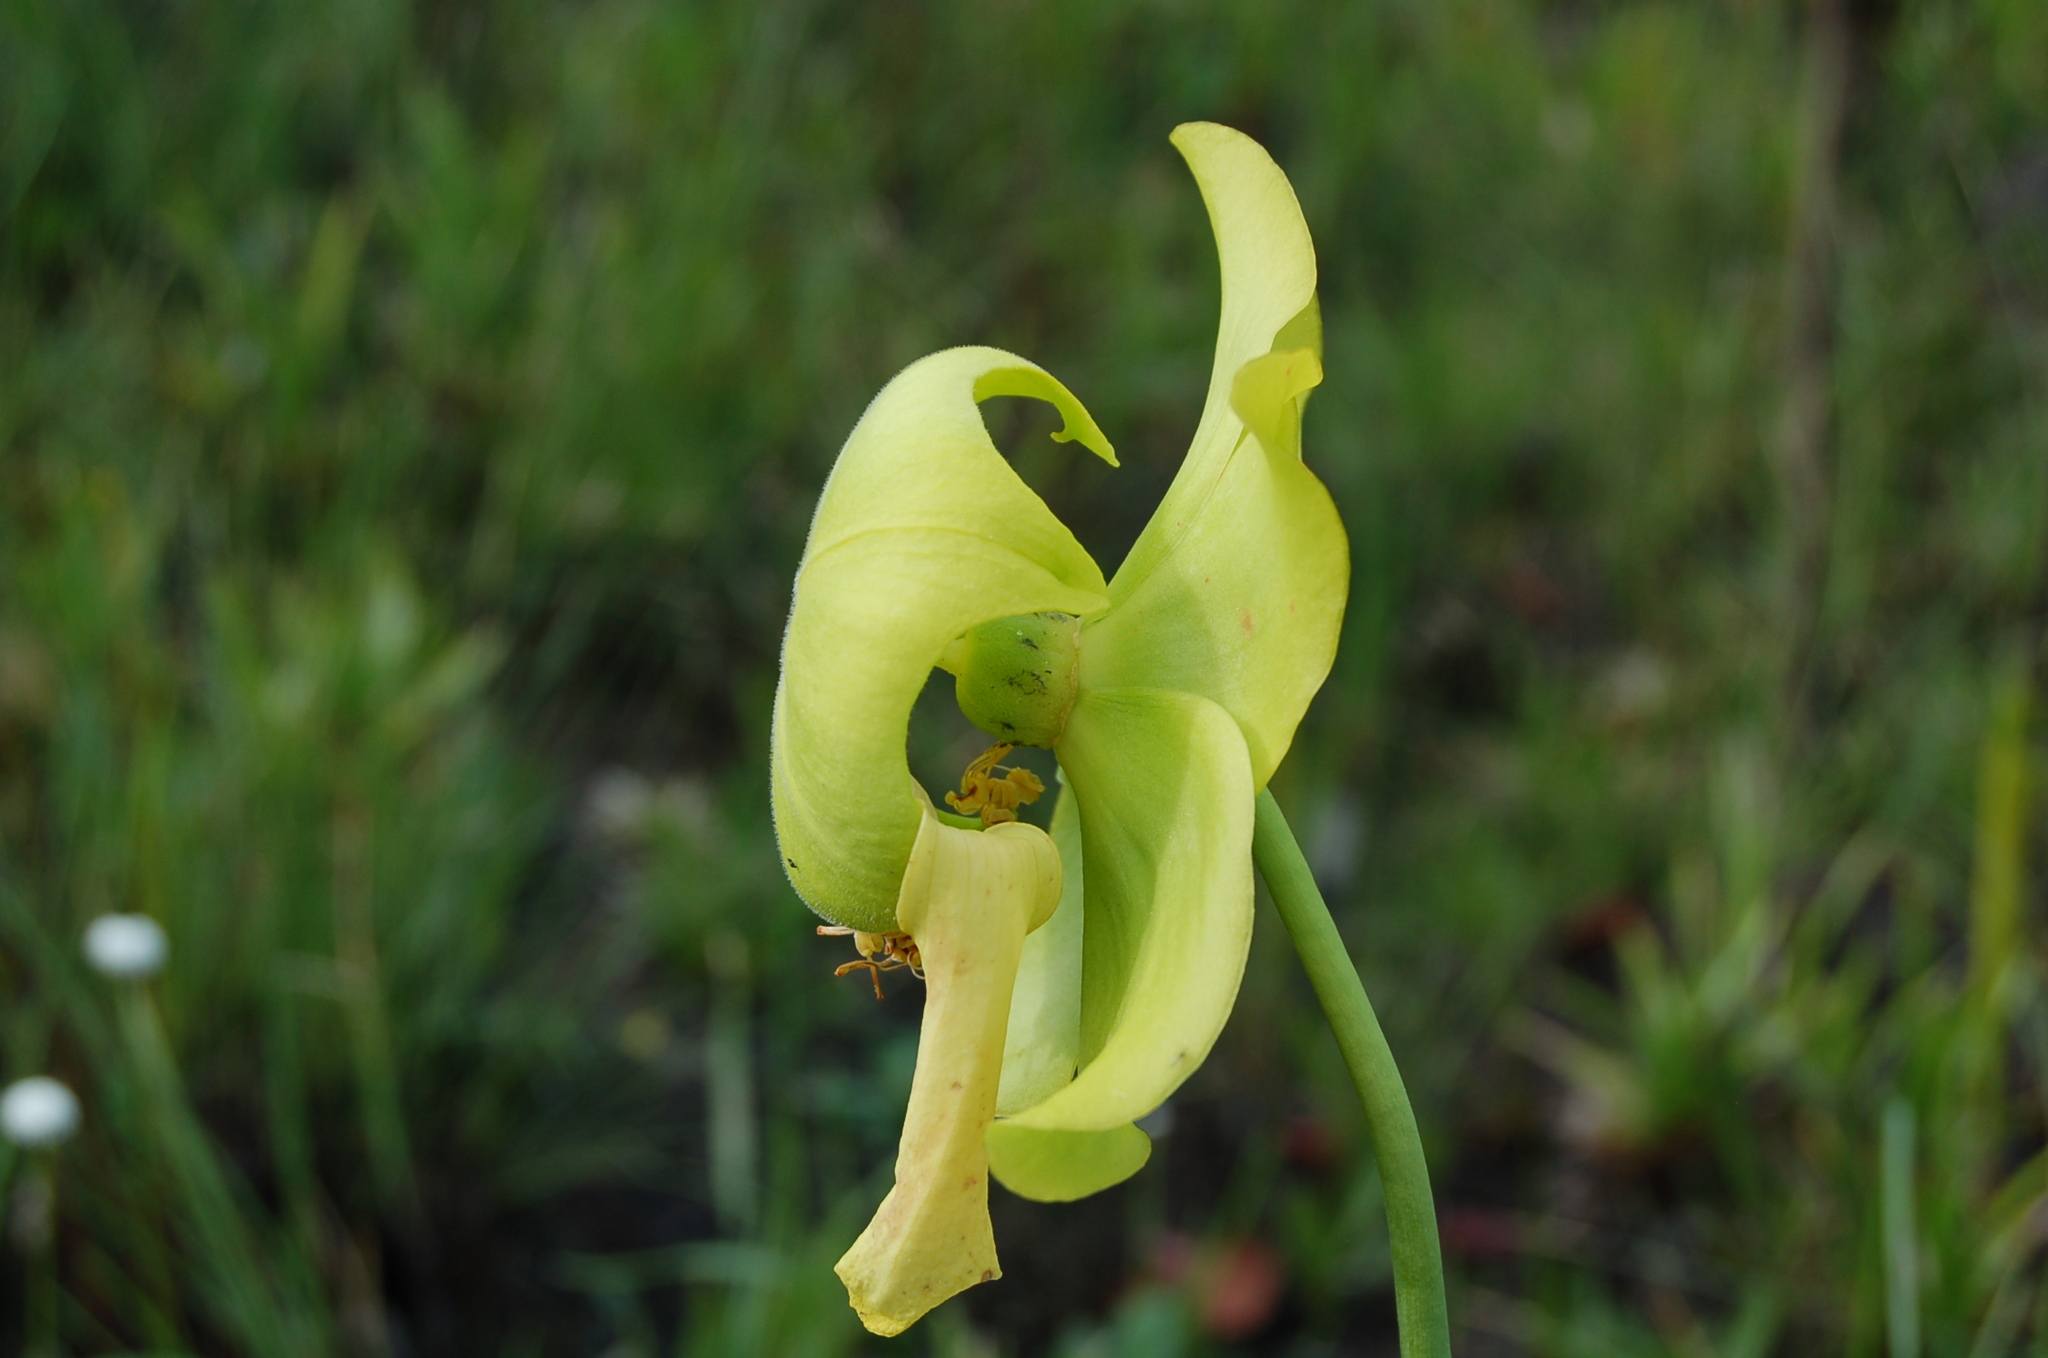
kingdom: Plantae
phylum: Tracheophyta
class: Magnoliopsida
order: Ericales
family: Sarraceniaceae
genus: Sarracenia
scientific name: Sarracenia flava
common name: Trumpets
